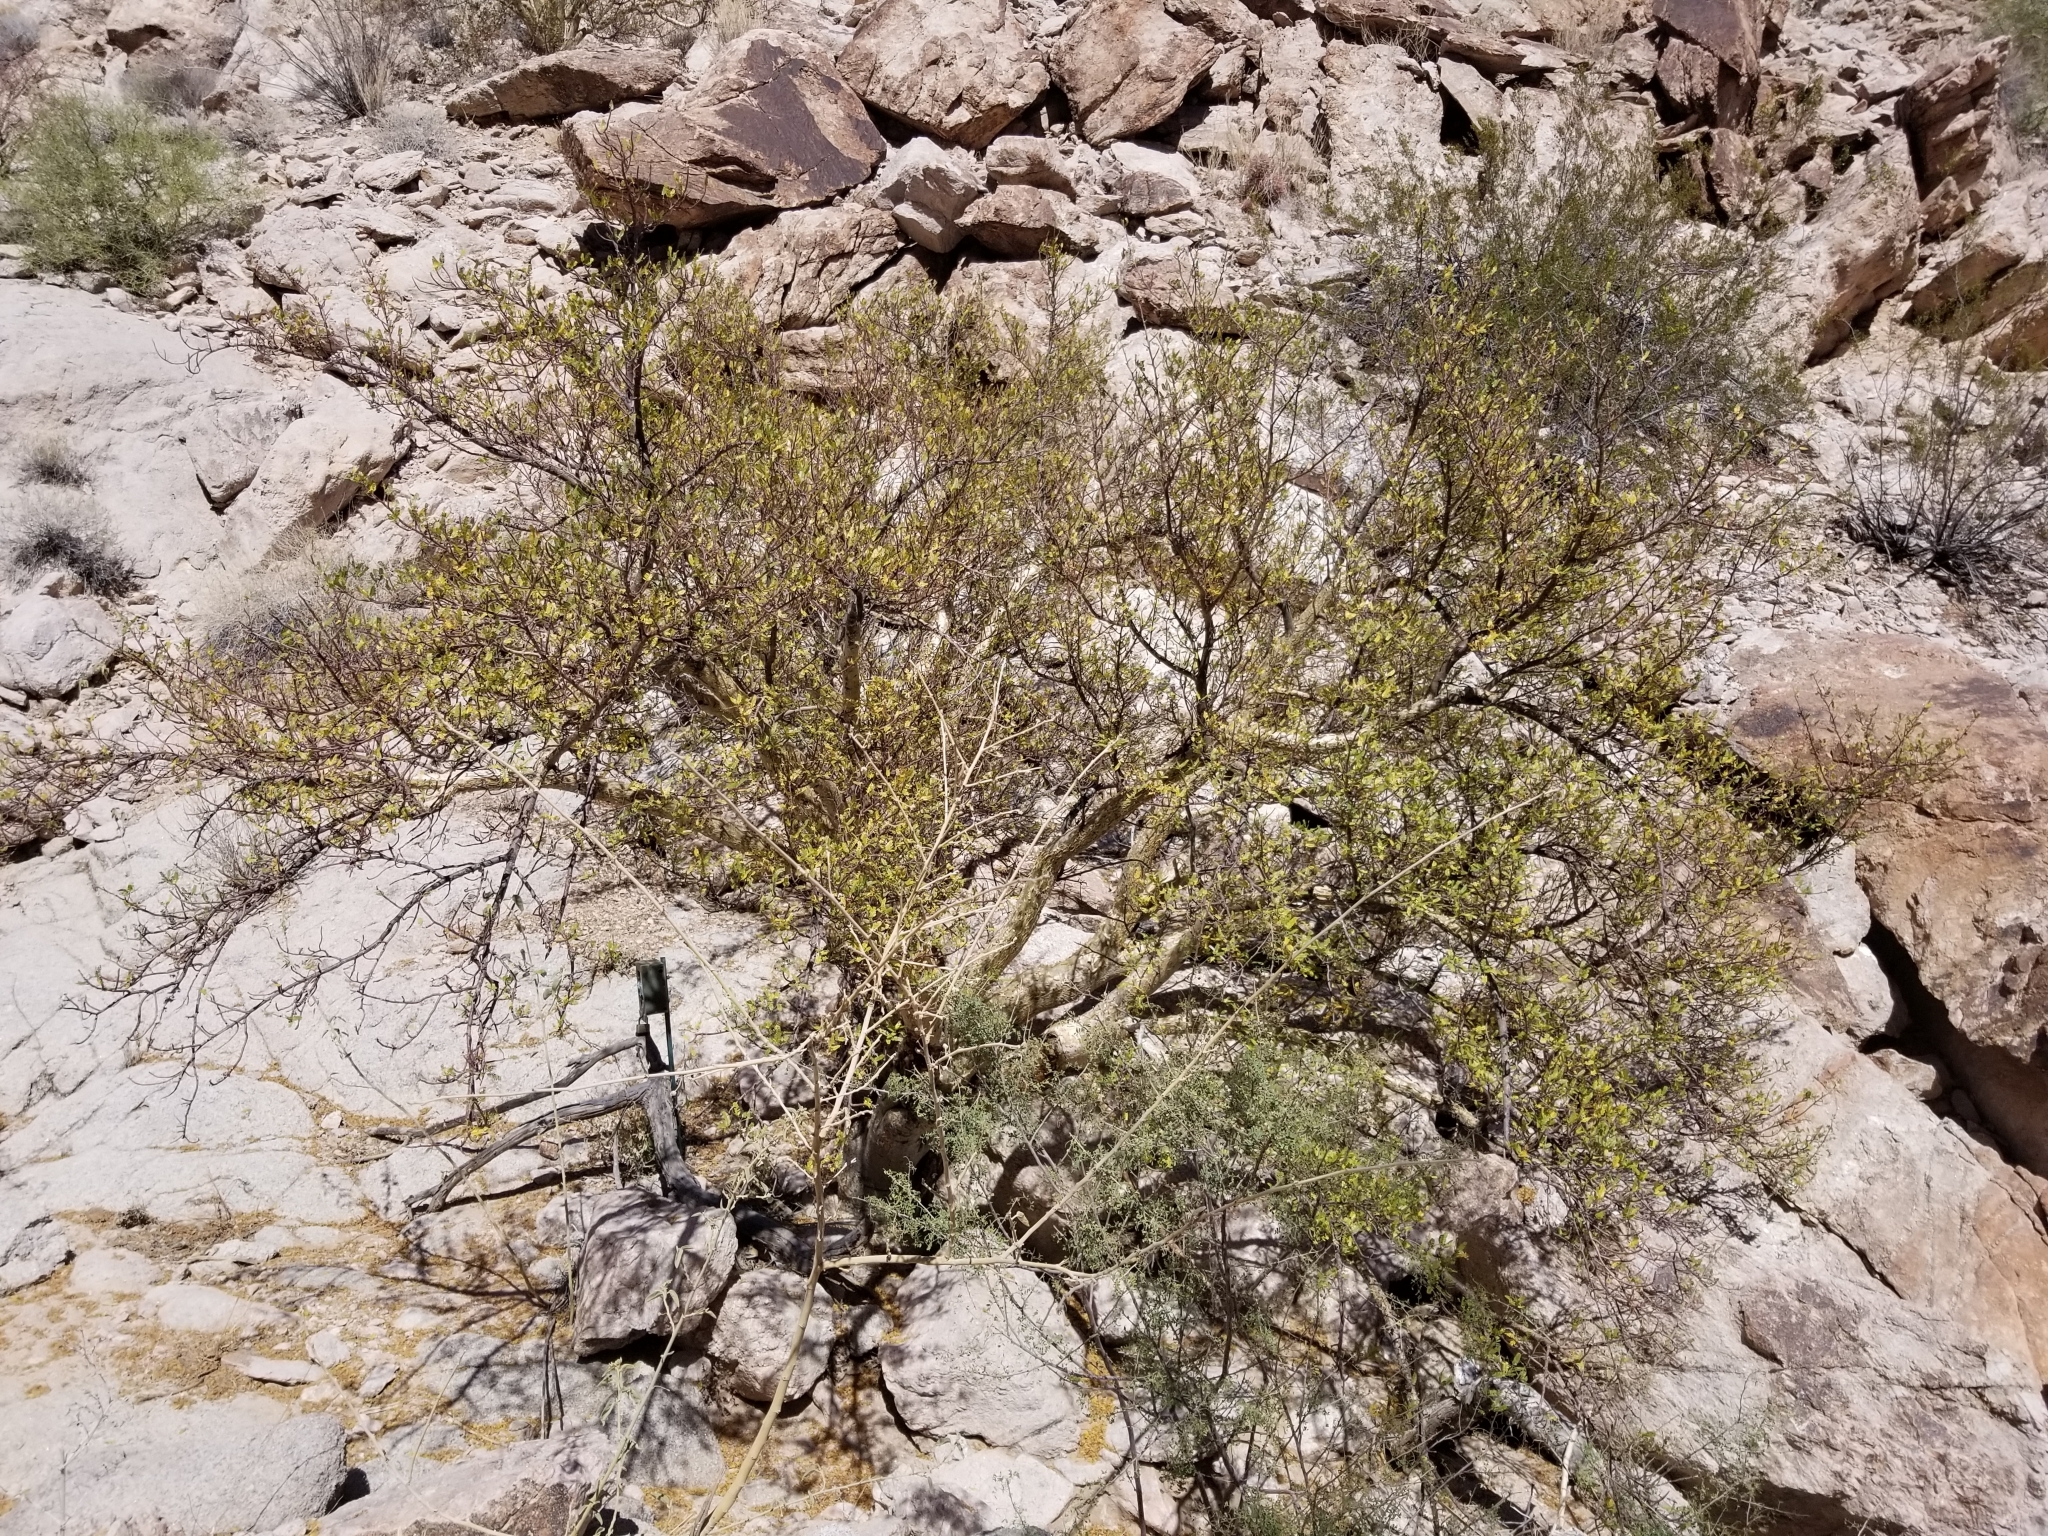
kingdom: Plantae
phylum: Tracheophyta
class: Magnoliopsida
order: Sapindales
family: Burseraceae
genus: Bursera
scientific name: Bursera microphylla
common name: Elephant tree
